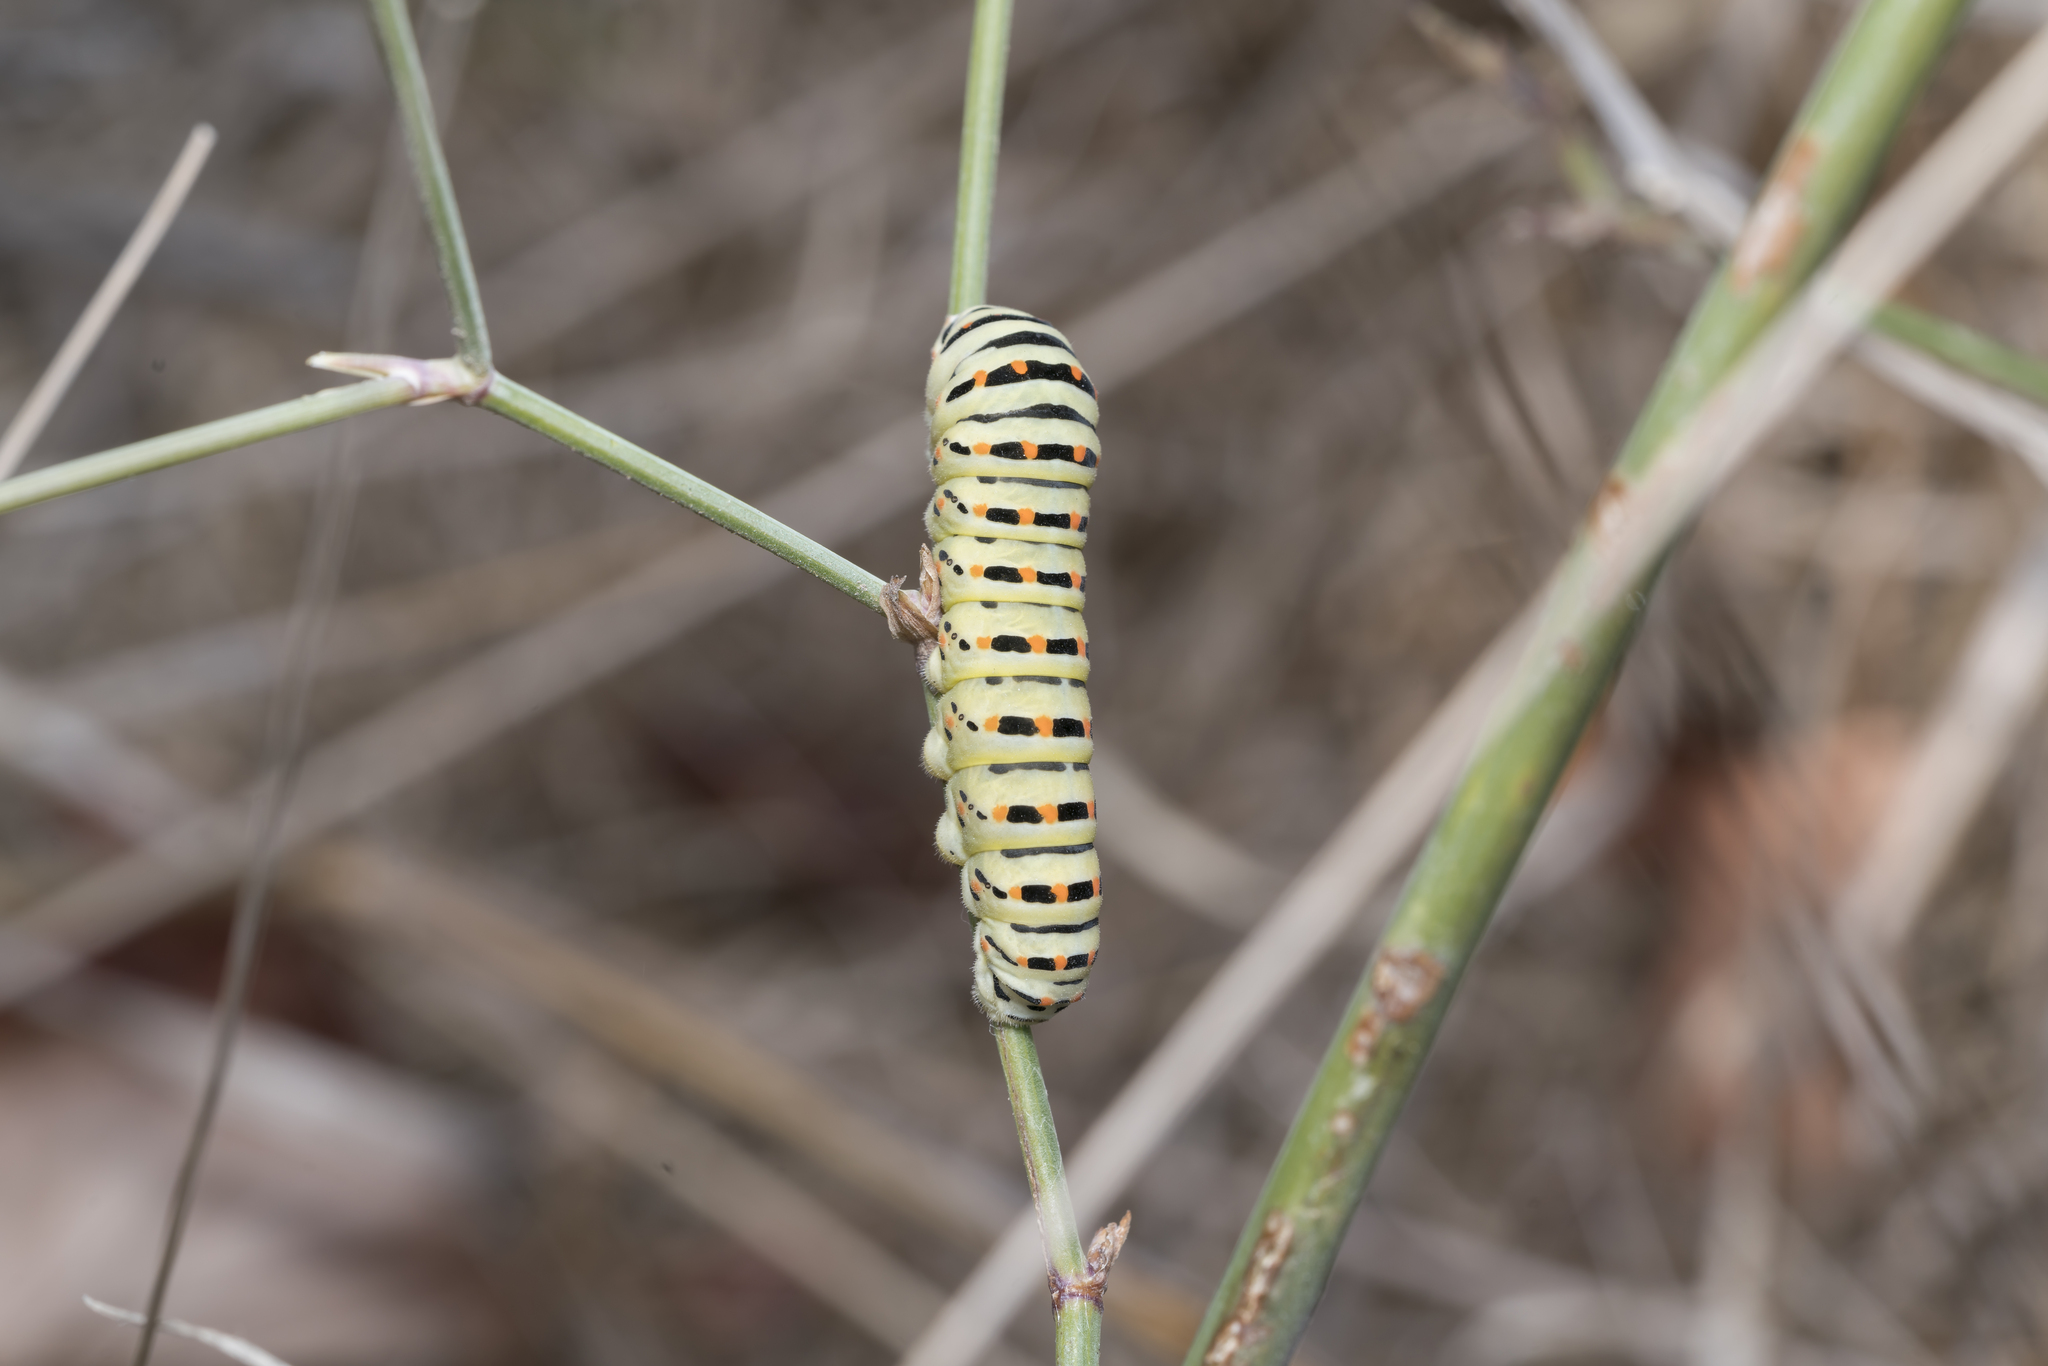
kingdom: Animalia
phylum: Arthropoda
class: Insecta
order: Lepidoptera
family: Papilionidae
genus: Papilio
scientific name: Papilio machaon
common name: Swallowtail
